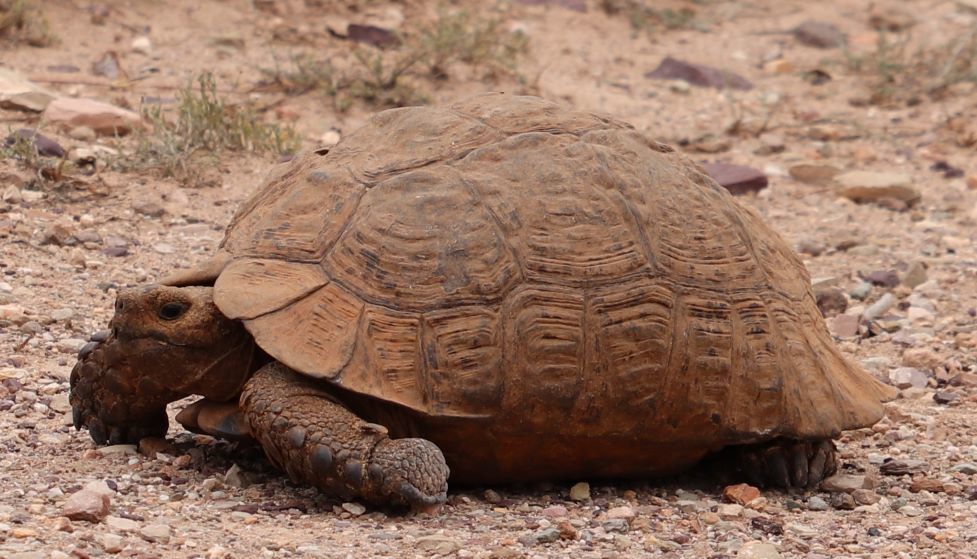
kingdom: Animalia
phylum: Chordata
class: Testudines
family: Testudinidae
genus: Stigmochelys
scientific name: Stigmochelys pardalis
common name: Leopard tortoise
